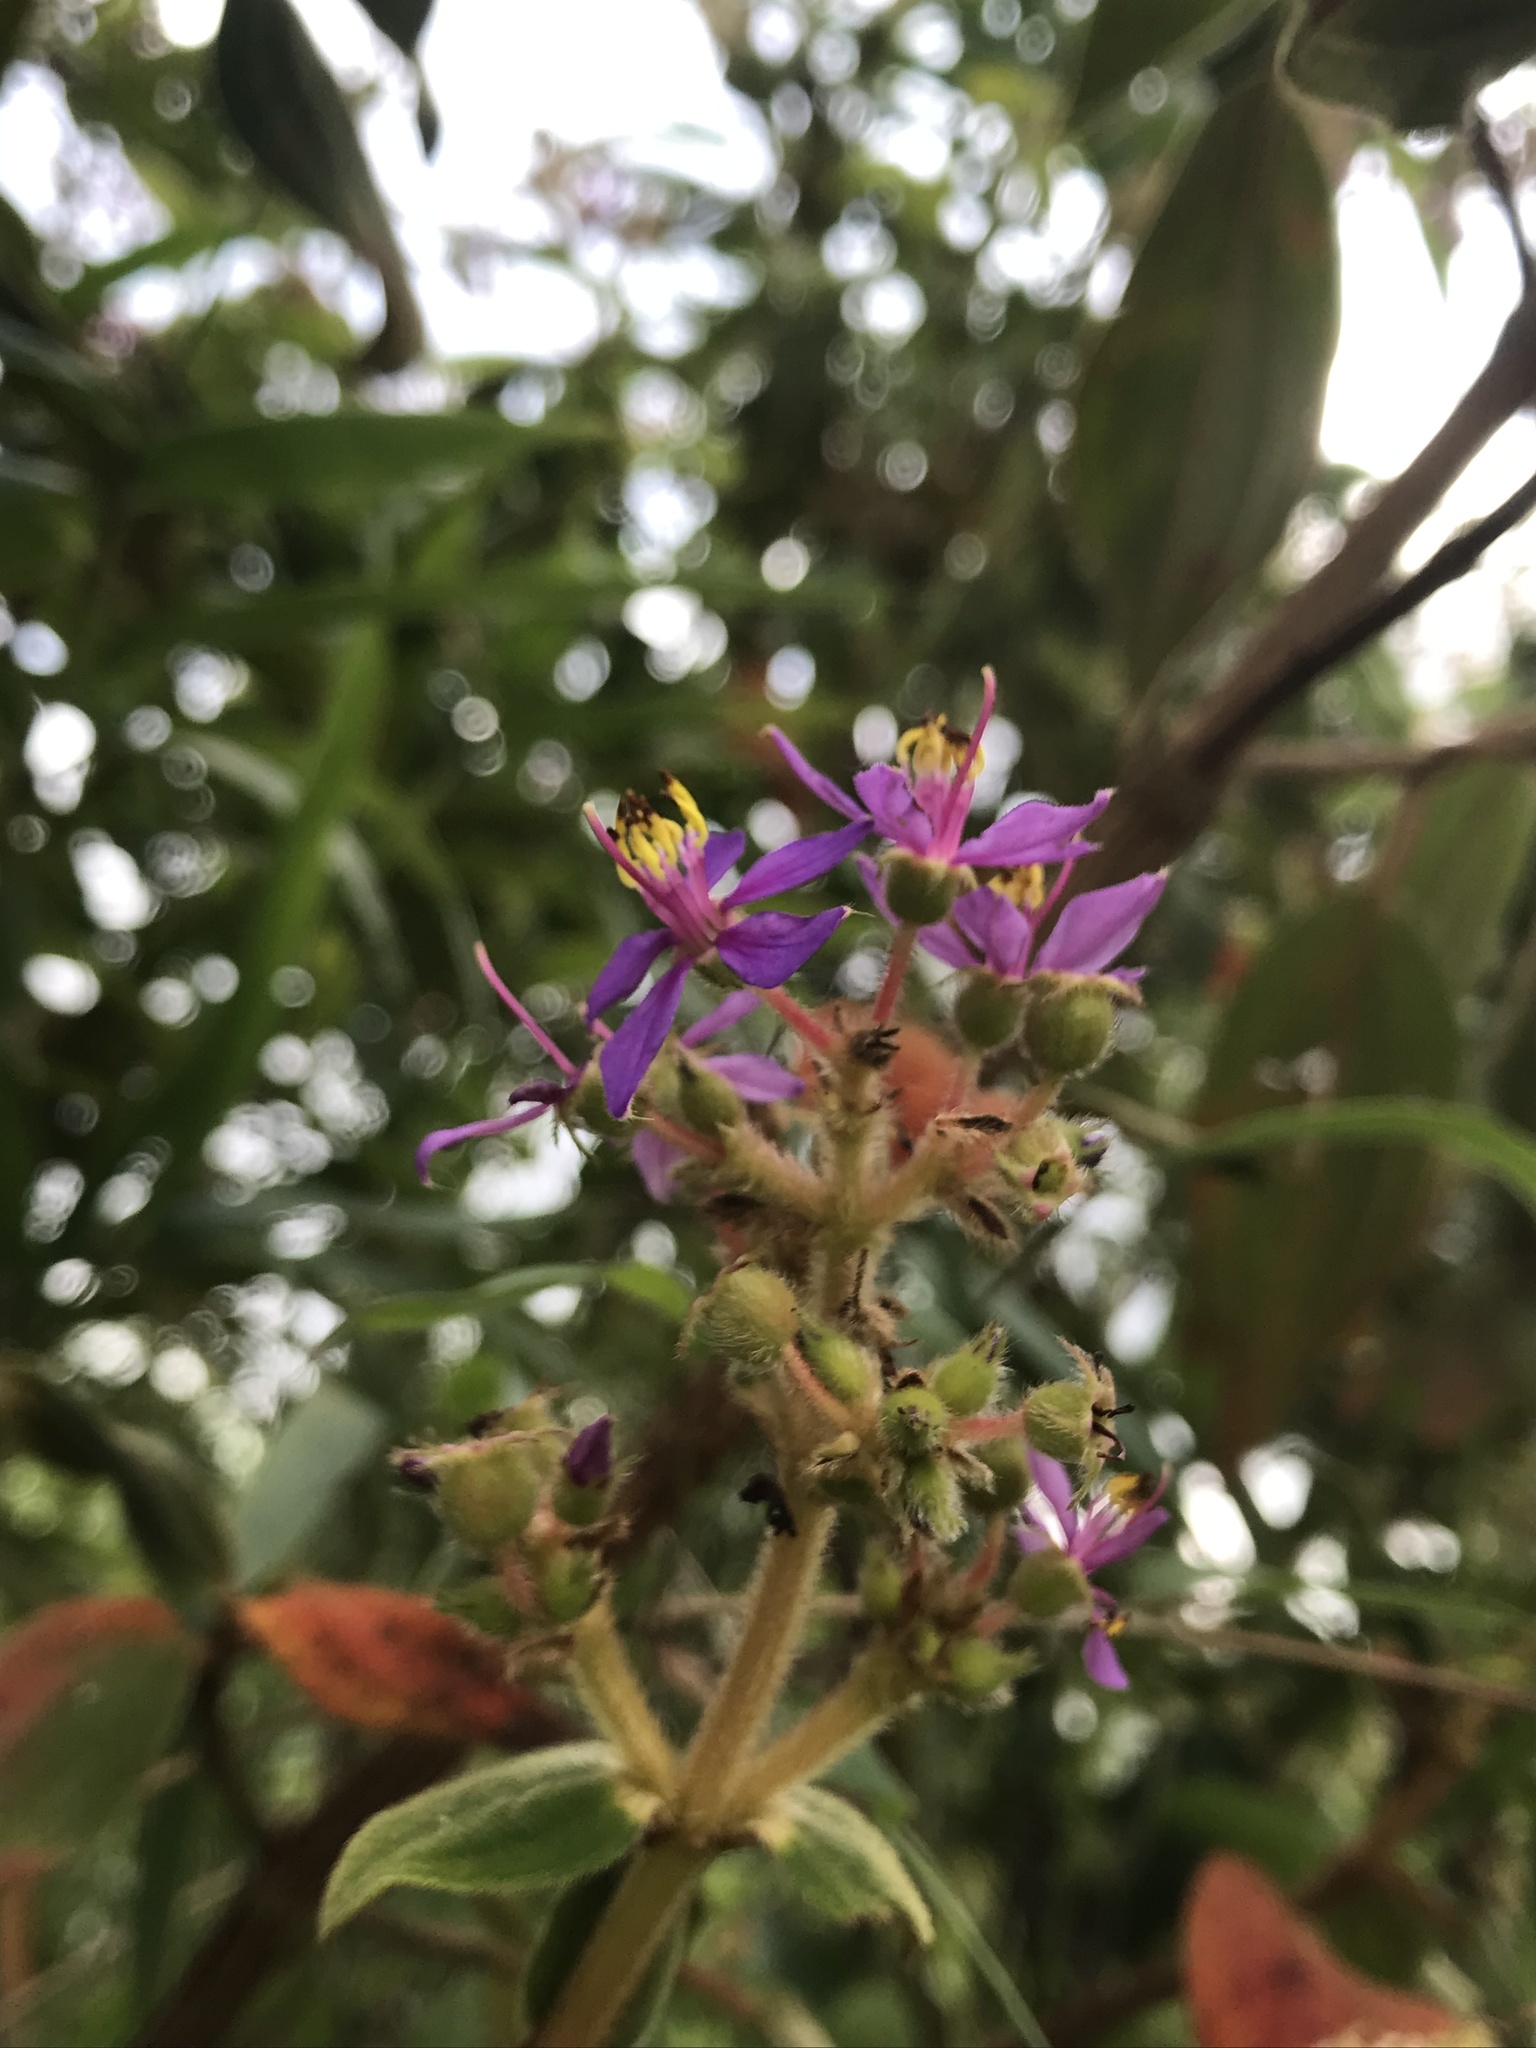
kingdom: Plantae
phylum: Tracheophyta
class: Magnoliopsida
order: Myrtales
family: Melastomataceae
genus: Chaetogastra
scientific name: Chaetogastra mollis
